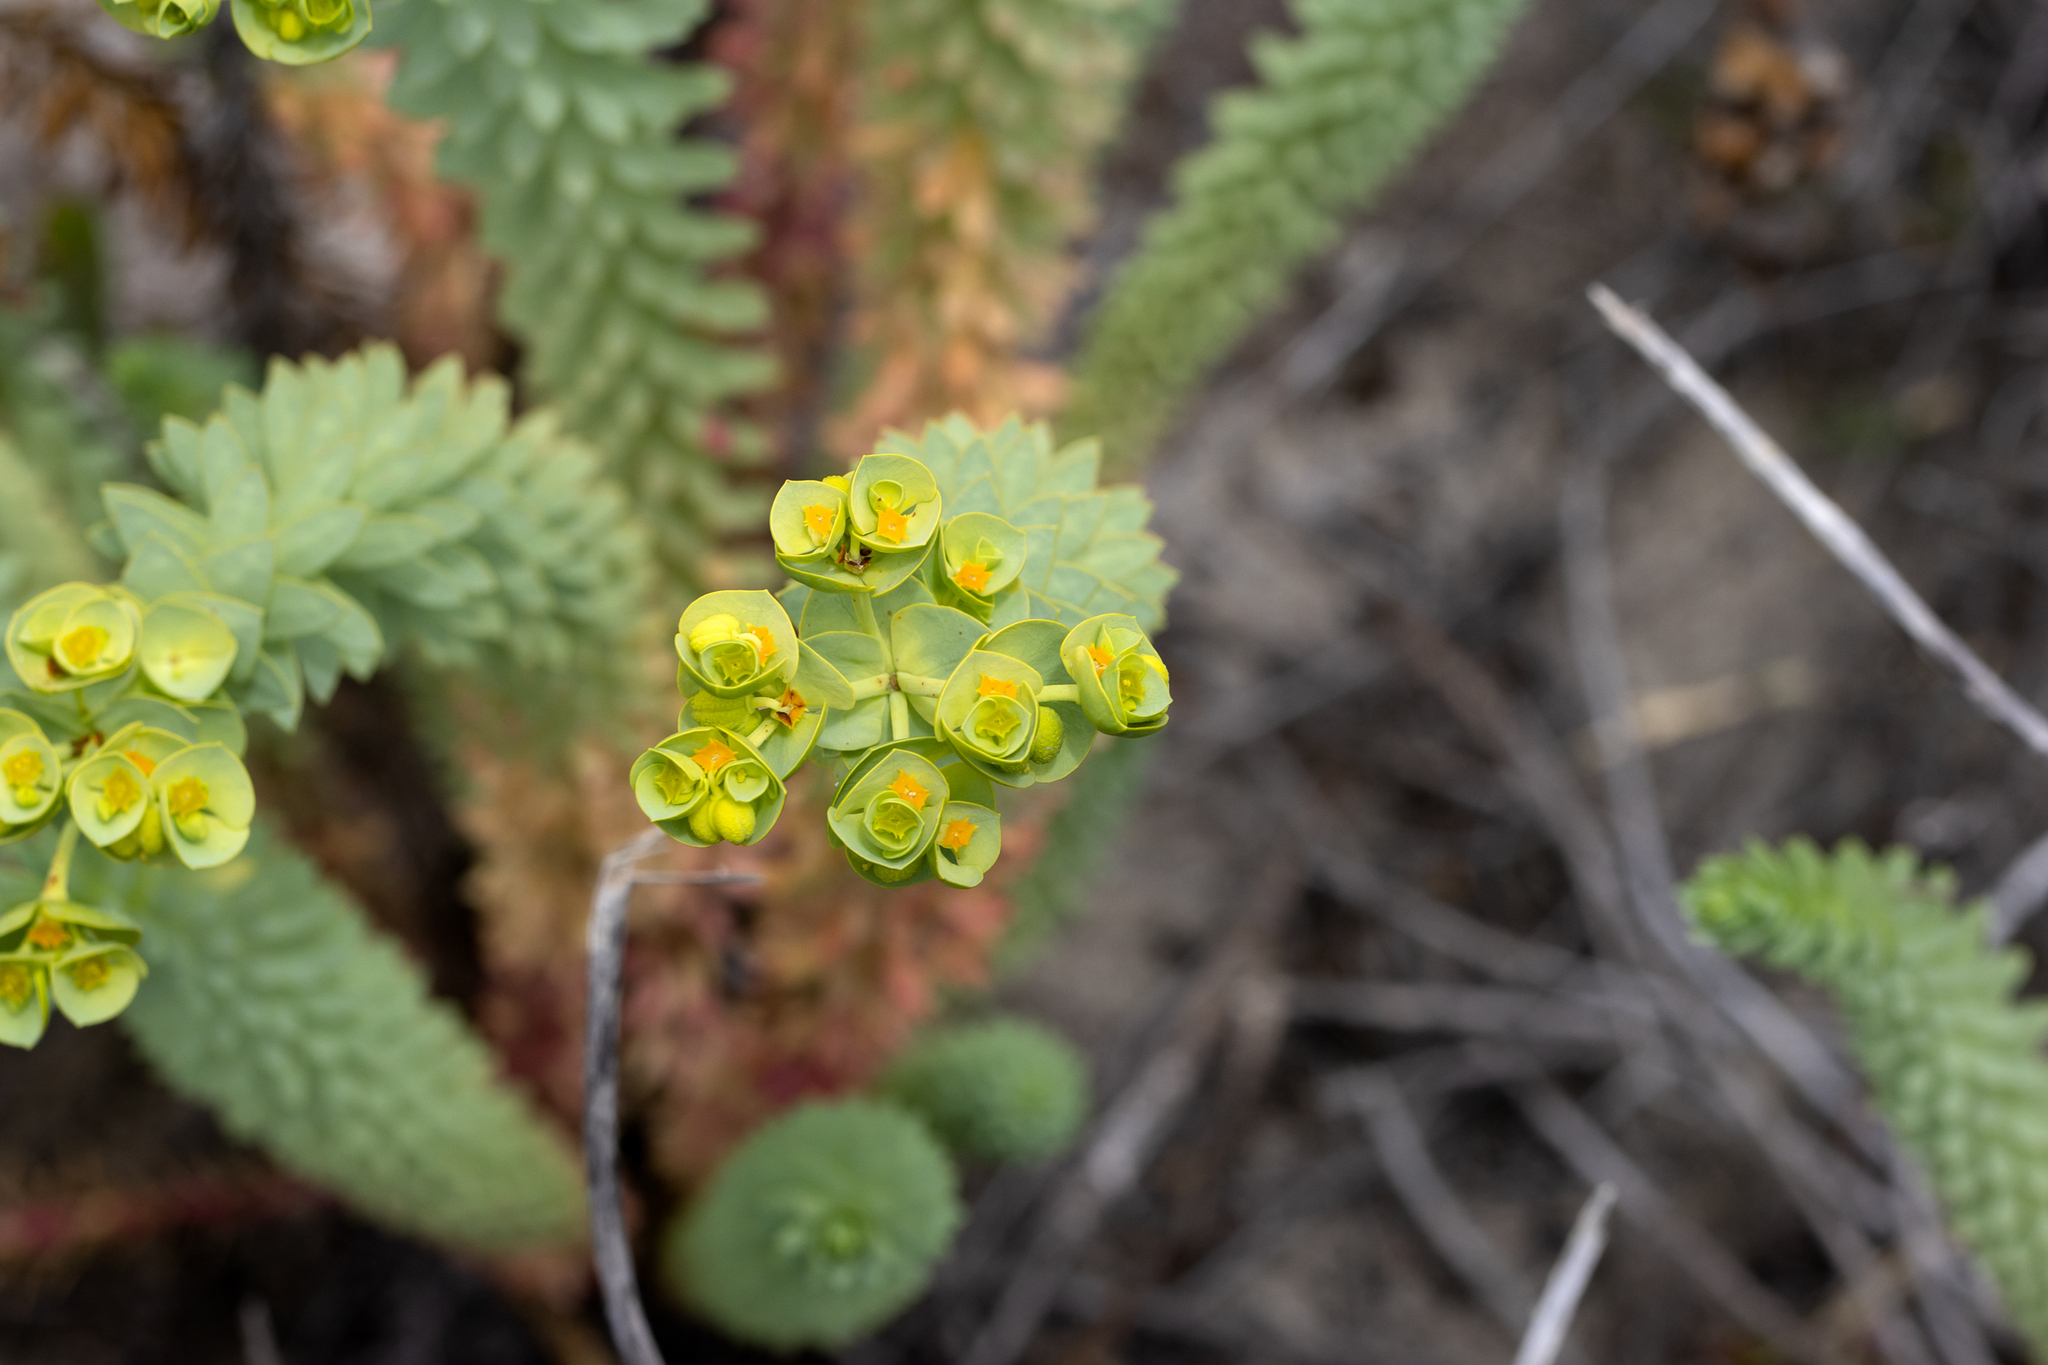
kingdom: Plantae
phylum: Tracheophyta
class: Magnoliopsida
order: Malpighiales
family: Euphorbiaceae
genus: Euphorbia
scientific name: Euphorbia paralias
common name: Sea spurge
